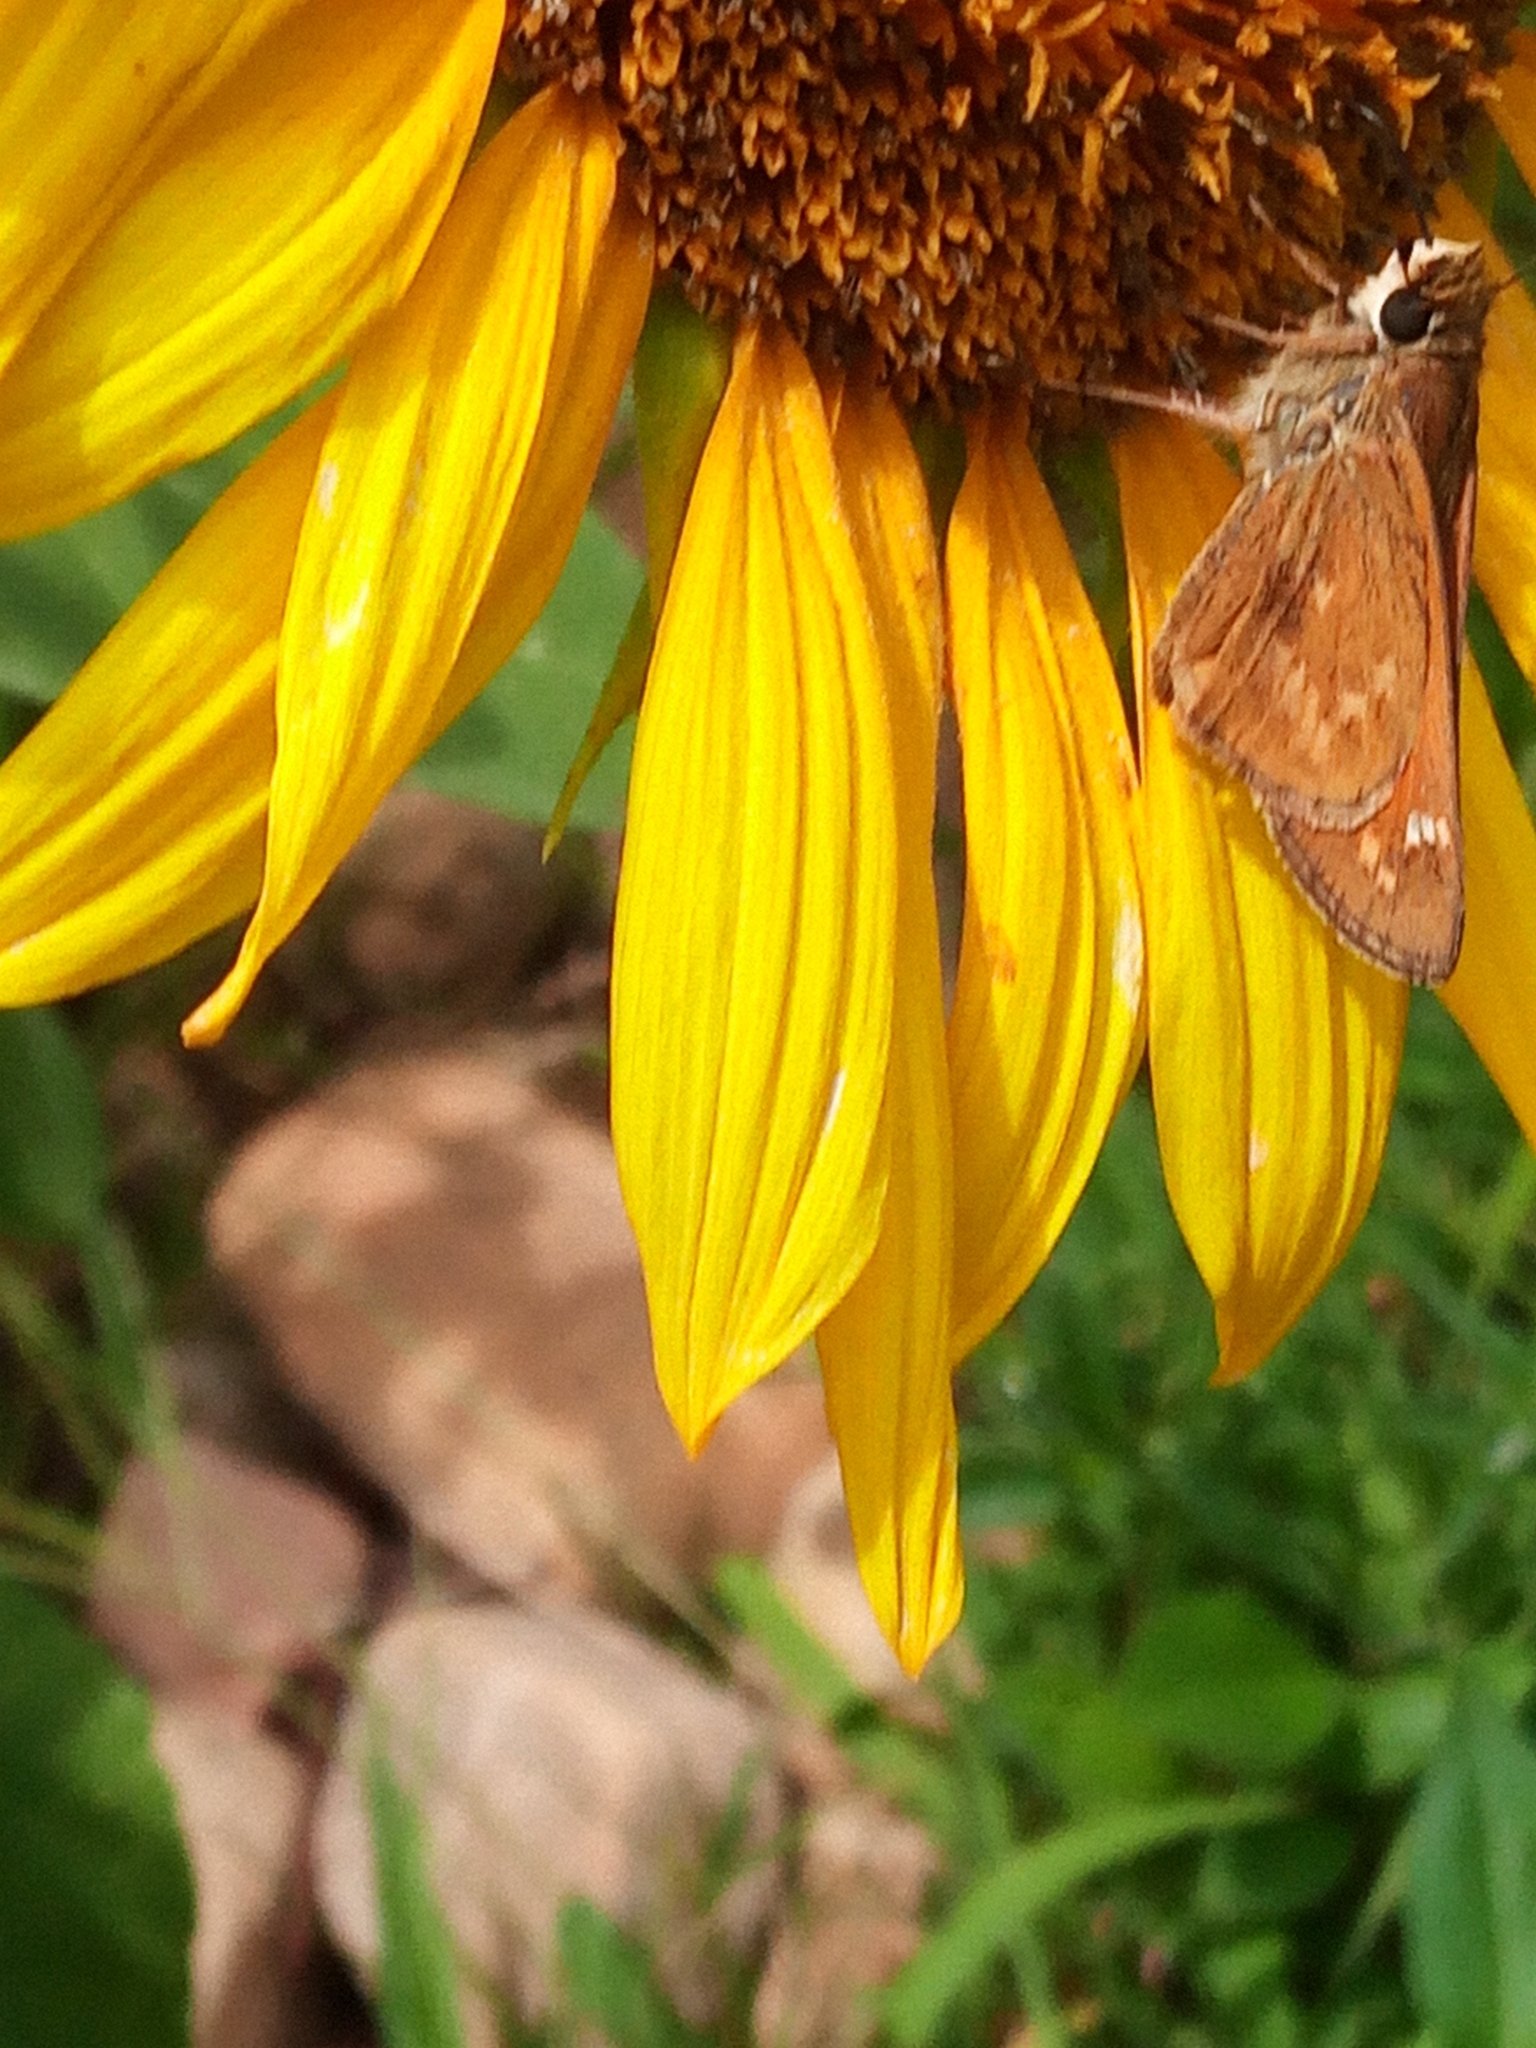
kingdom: Animalia
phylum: Arthropoda
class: Insecta
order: Lepidoptera
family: Hesperiidae
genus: Atalopedes
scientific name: Atalopedes
